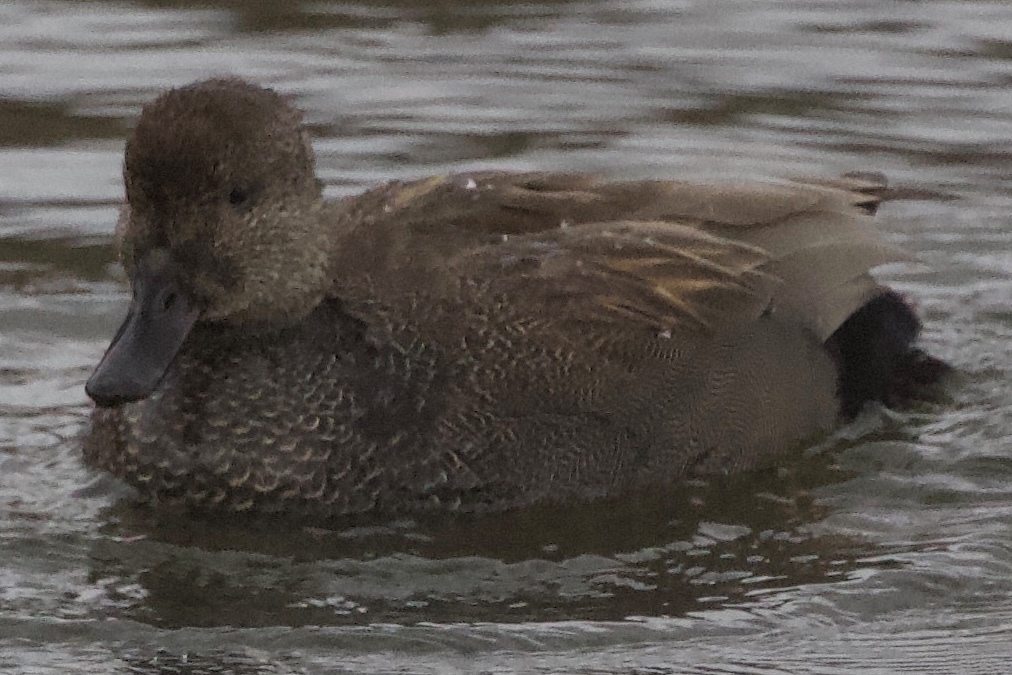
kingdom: Animalia
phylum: Chordata
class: Aves
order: Anseriformes
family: Anatidae
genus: Mareca
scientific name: Mareca strepera
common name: Gadwall
